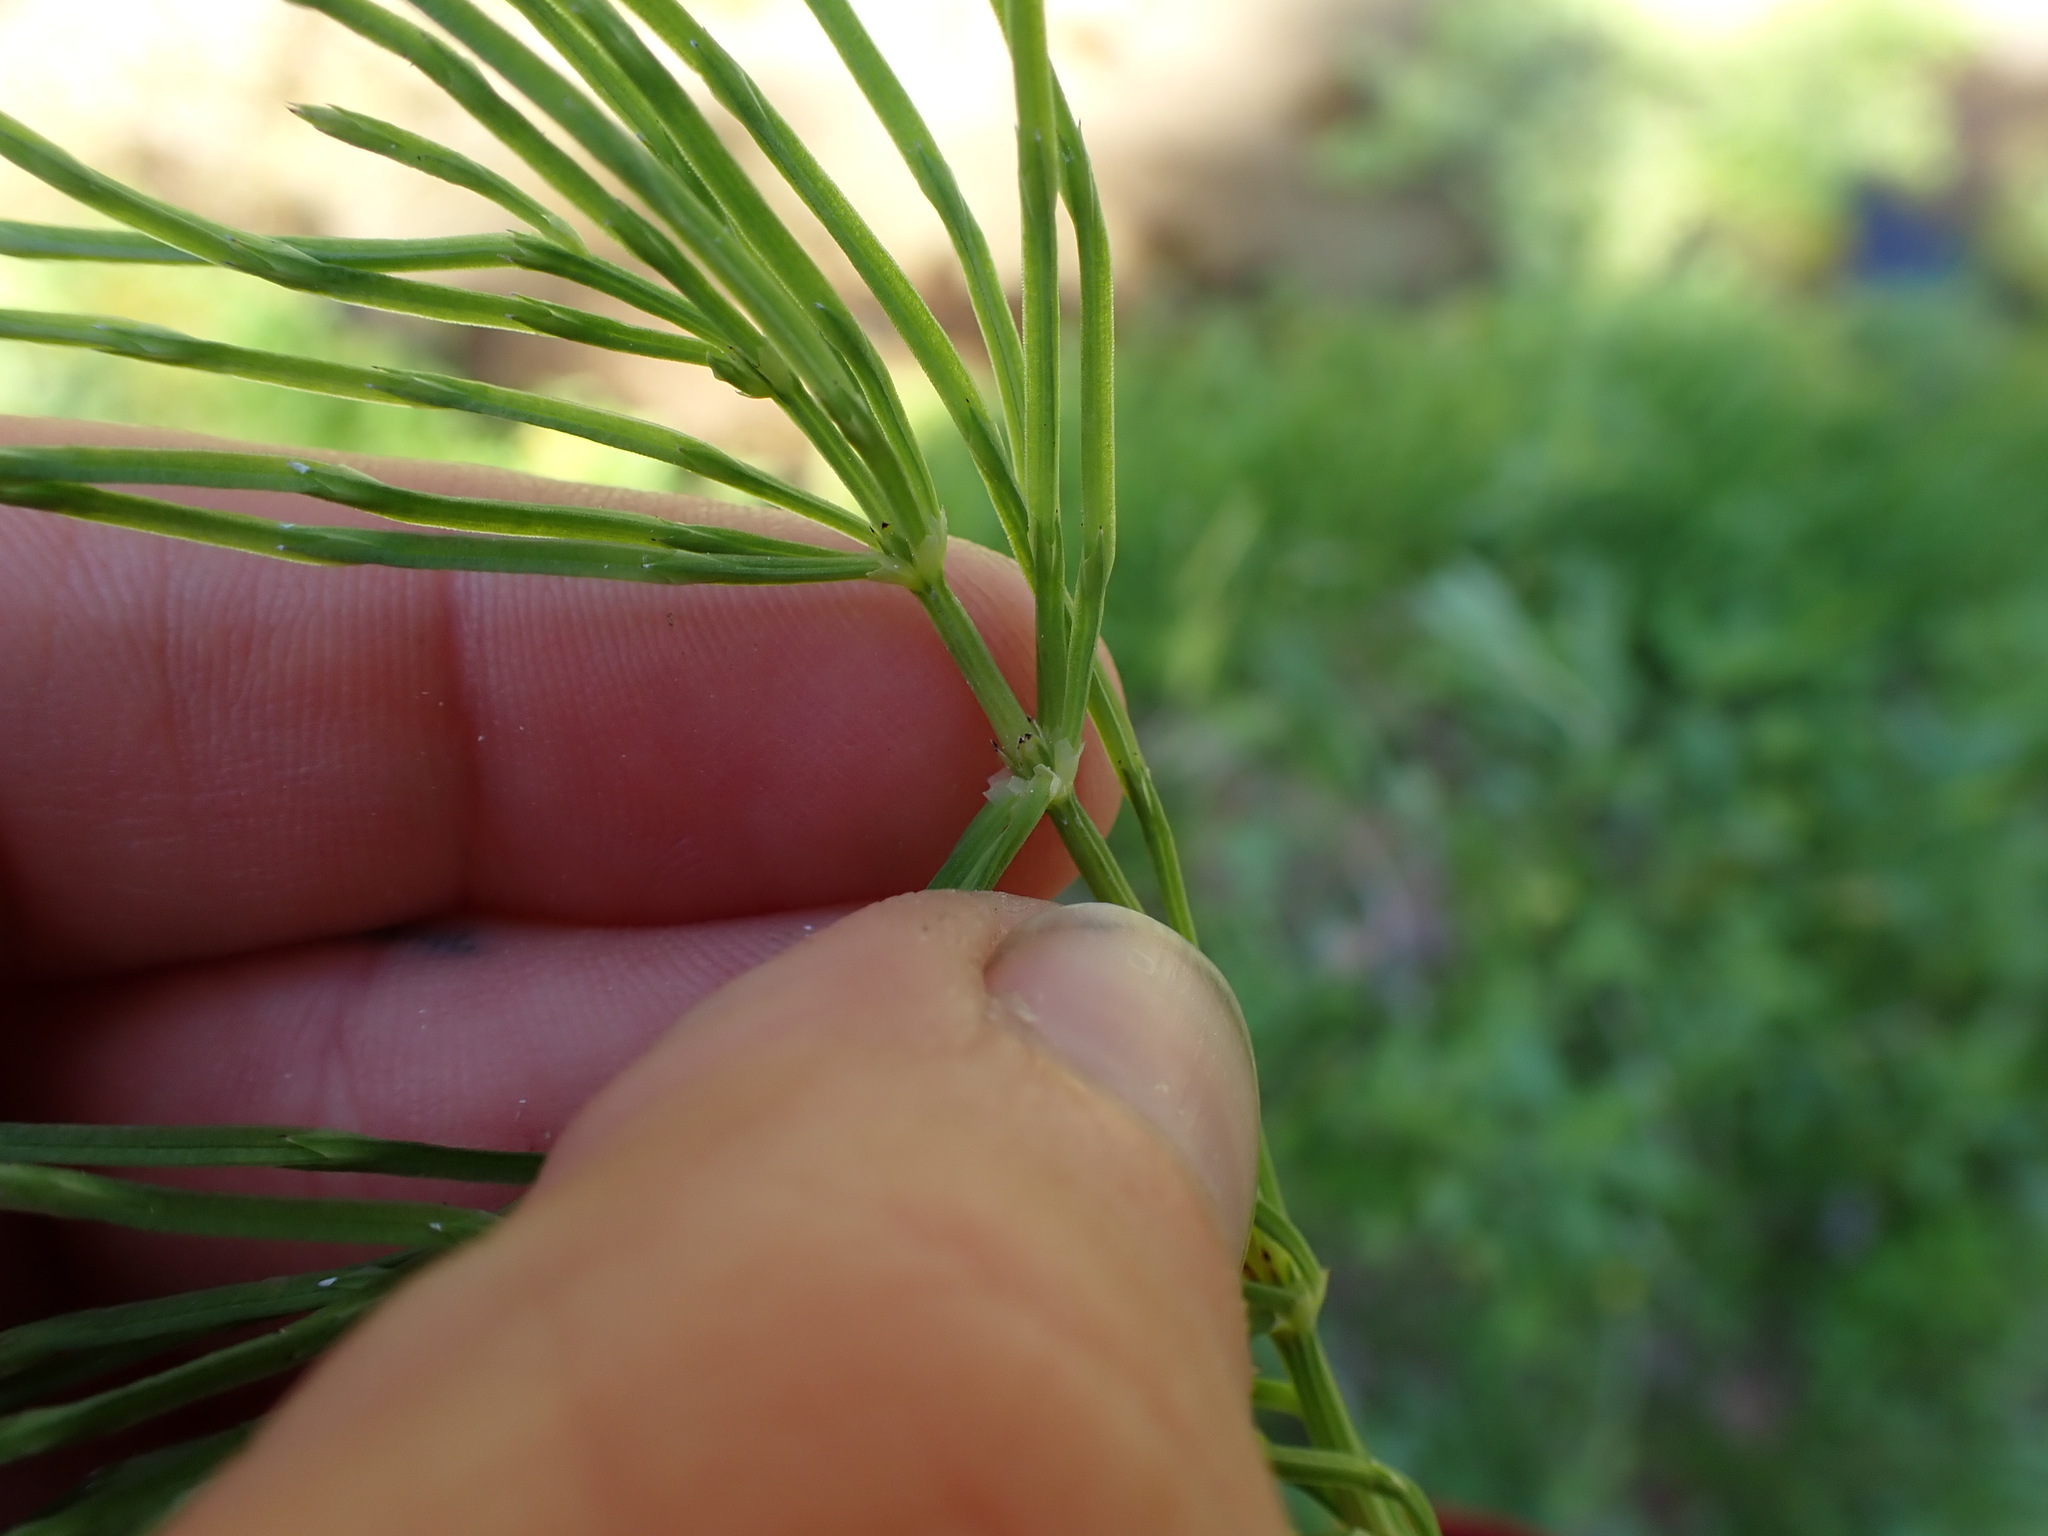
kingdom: Plantae
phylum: Tracheophyta
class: Polypodiopsida
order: Equisetales
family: Equisetaceae
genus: Equisetum
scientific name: Equisetum arvense
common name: Field horsetail
